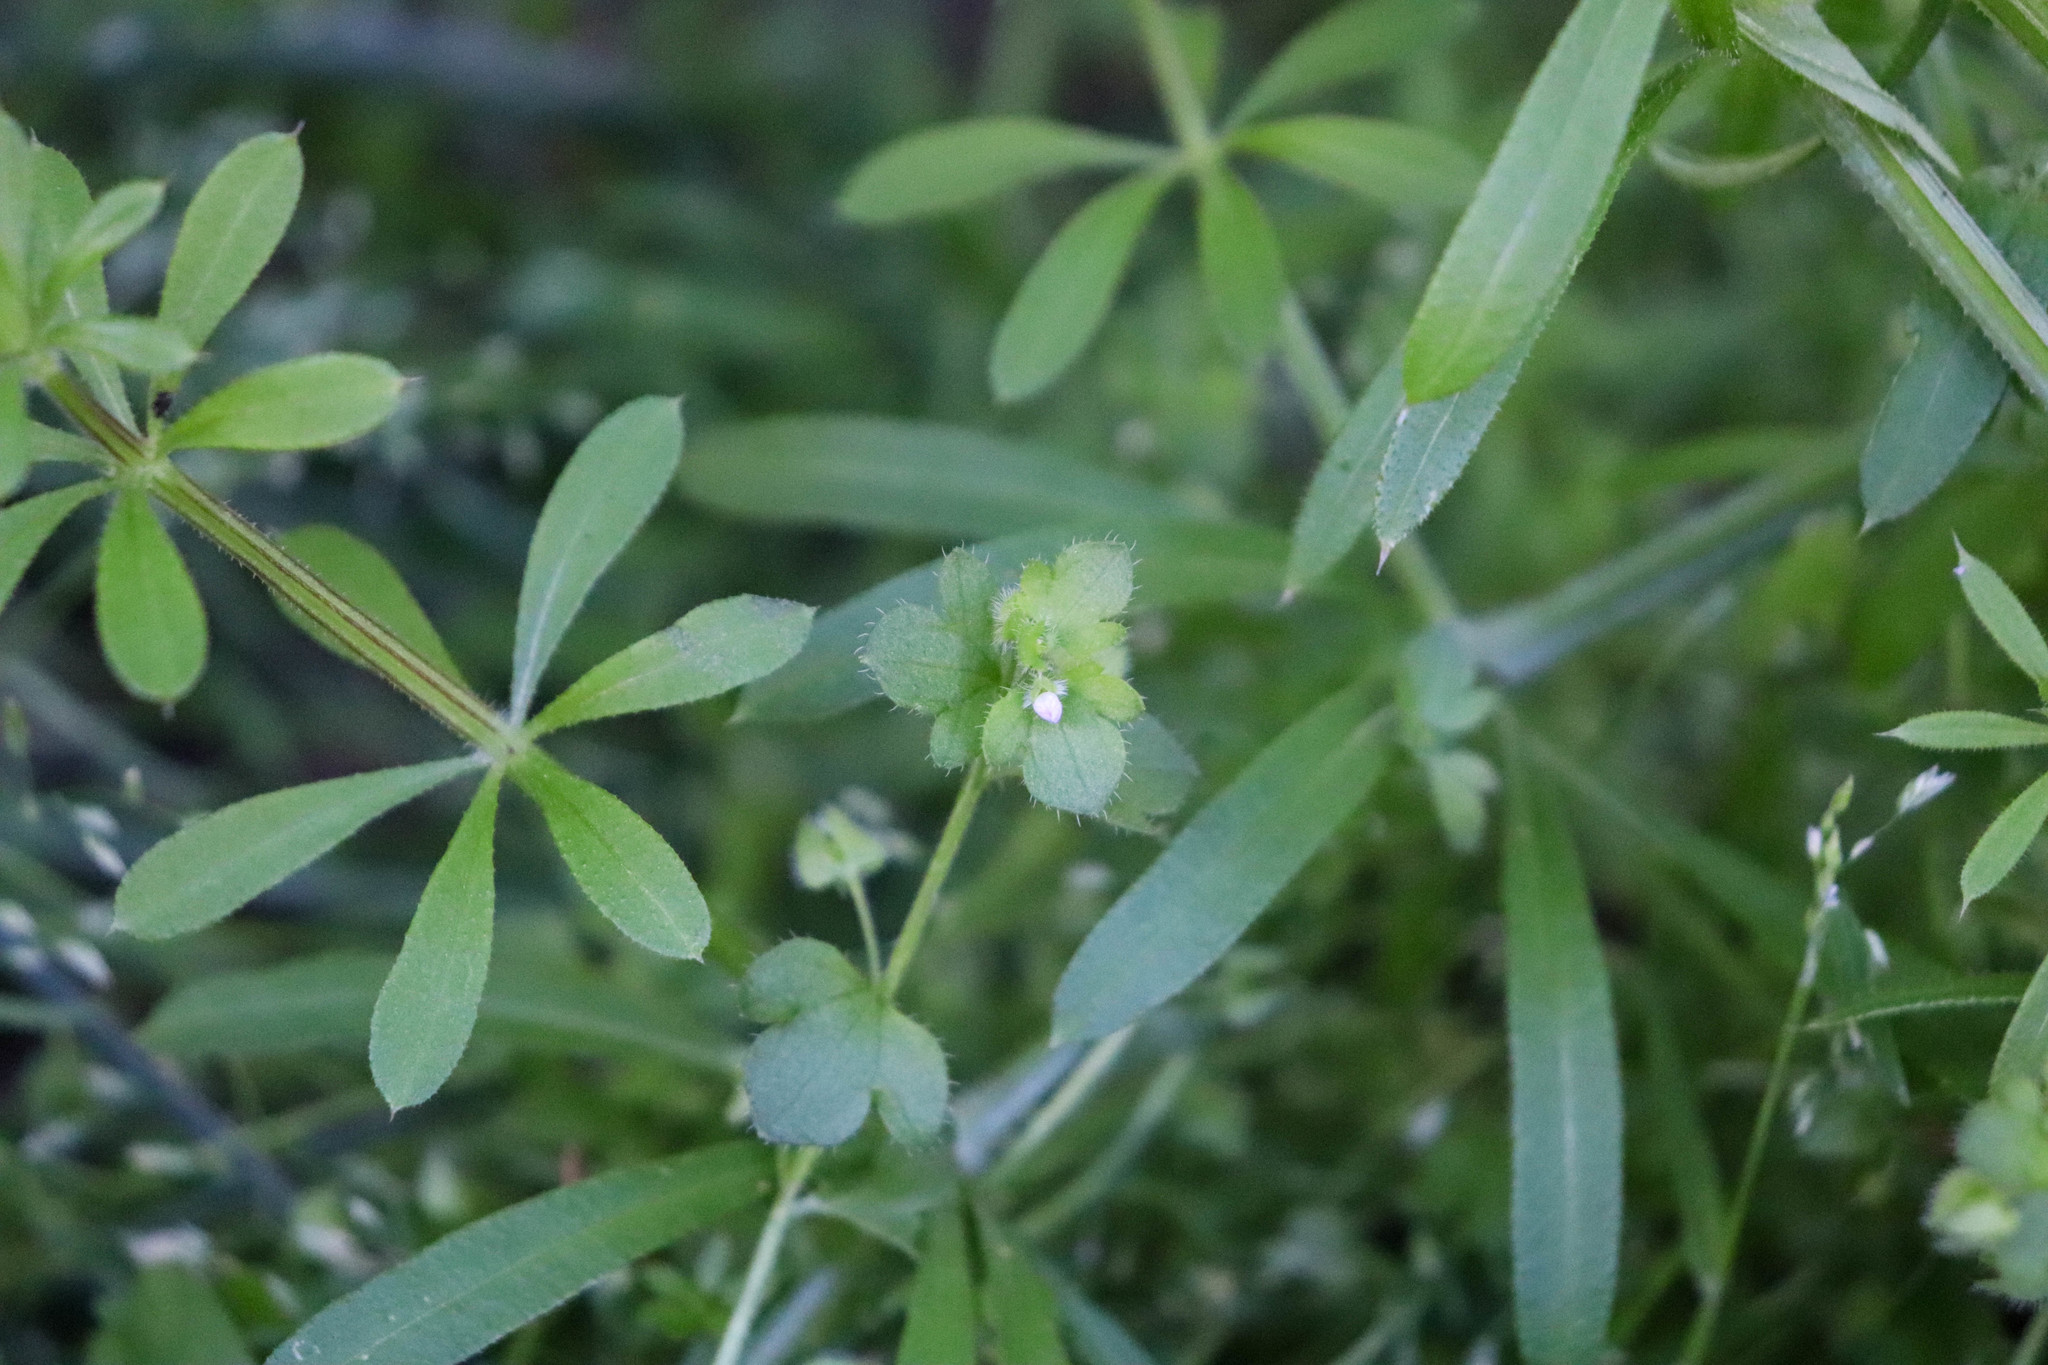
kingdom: Plantae
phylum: Tracheophyta
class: Magnoliopsida
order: Lamiales
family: Plantaginaceae
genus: Veronica
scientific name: Veronica sublobata
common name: False ivy-leaved speedwell
